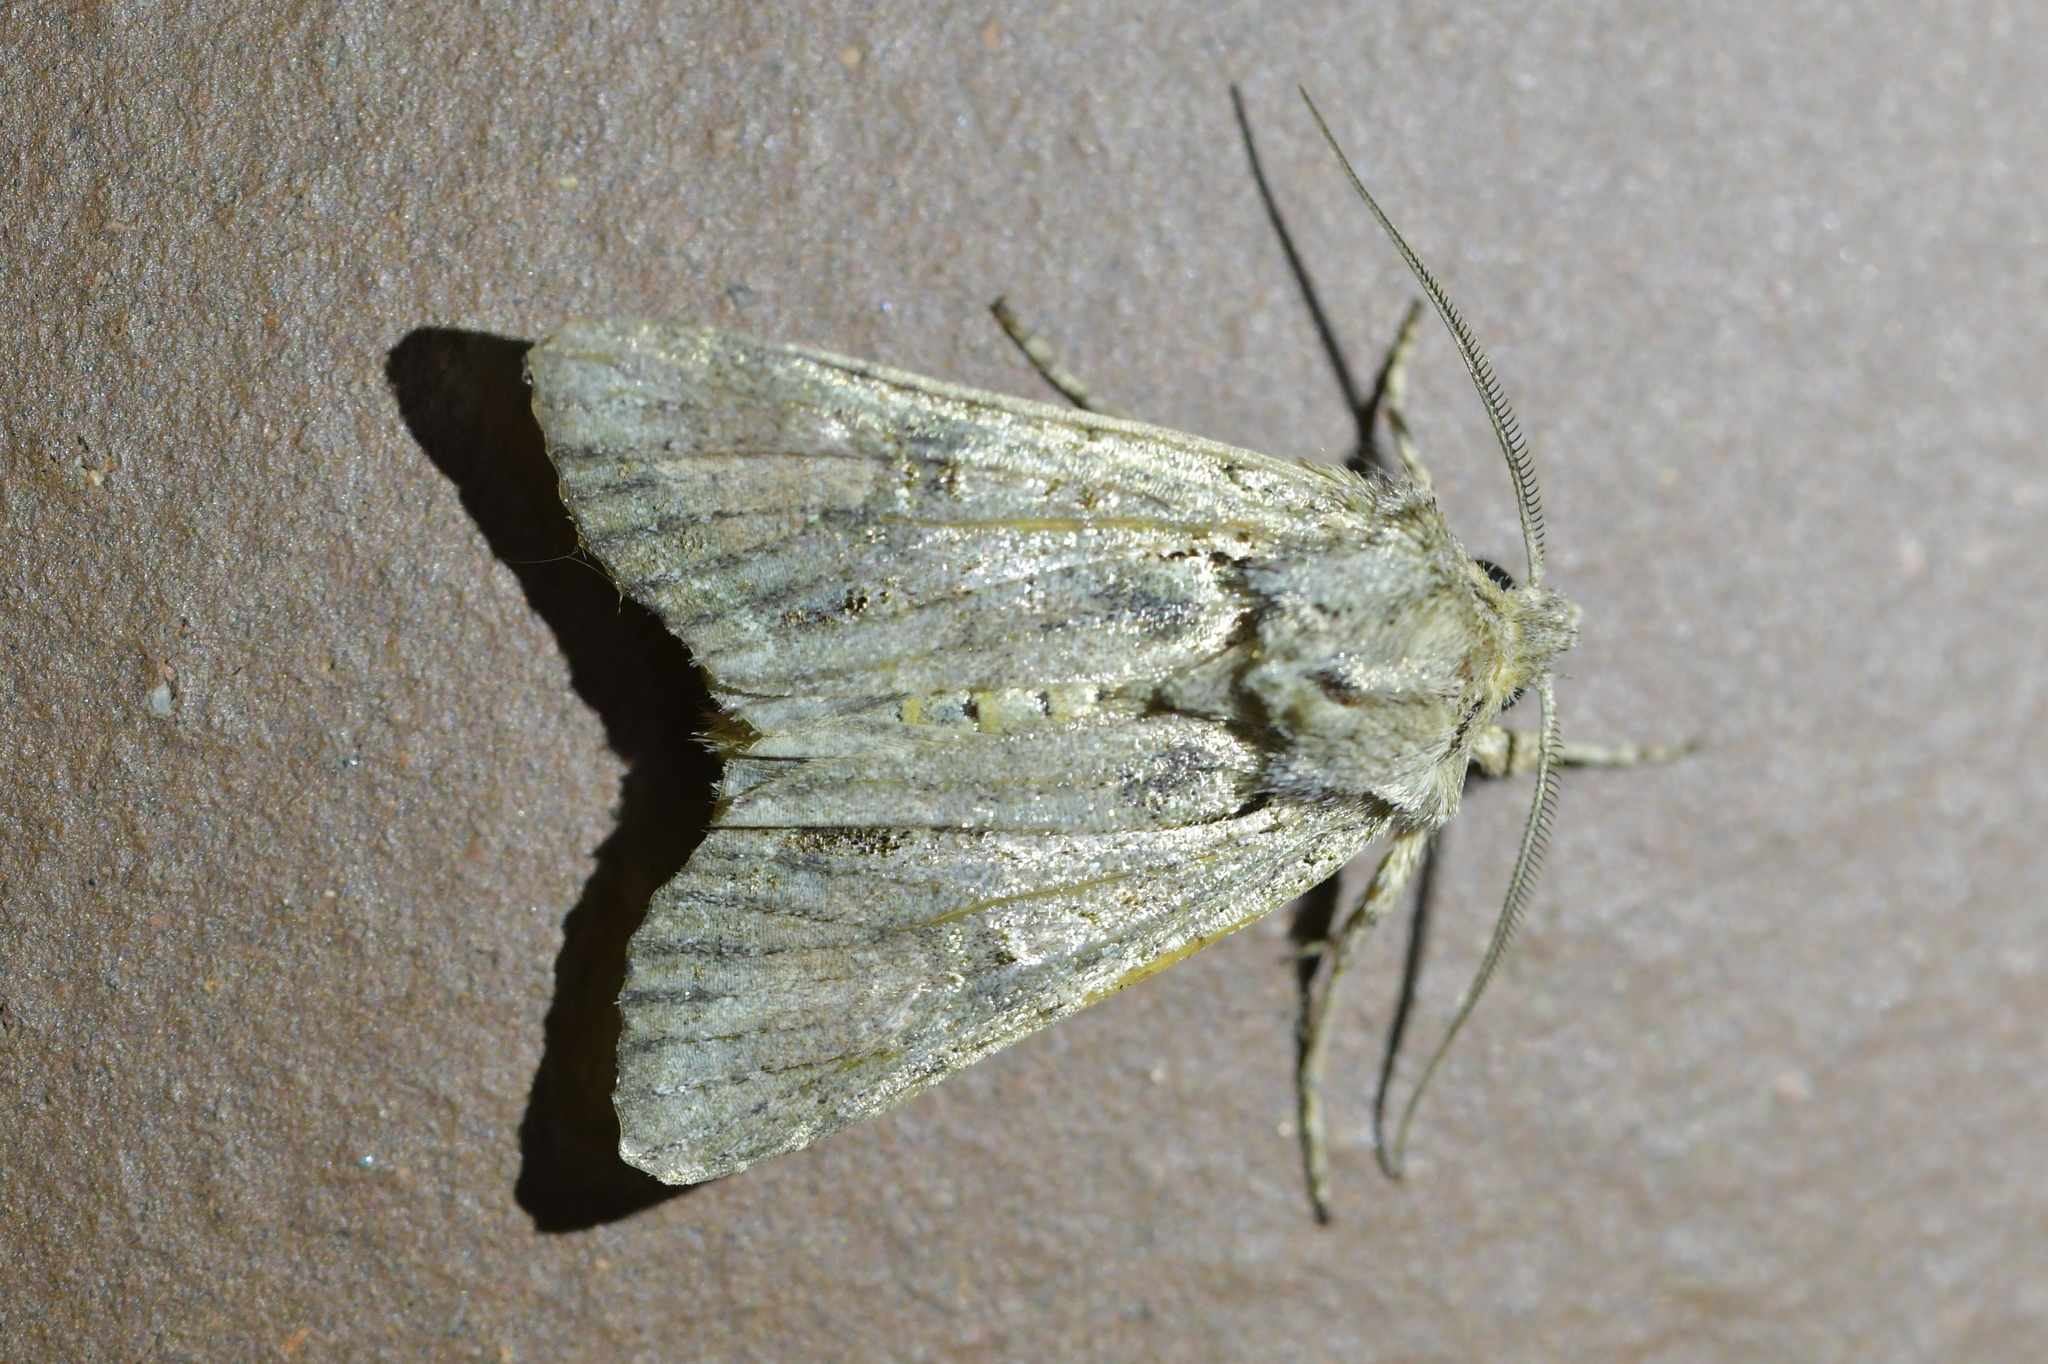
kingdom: Animalia
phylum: Arthropoda
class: Insecta
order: Lepidoptera
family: Noctuidae
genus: Ichneutica
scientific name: Ichneutica mutans
